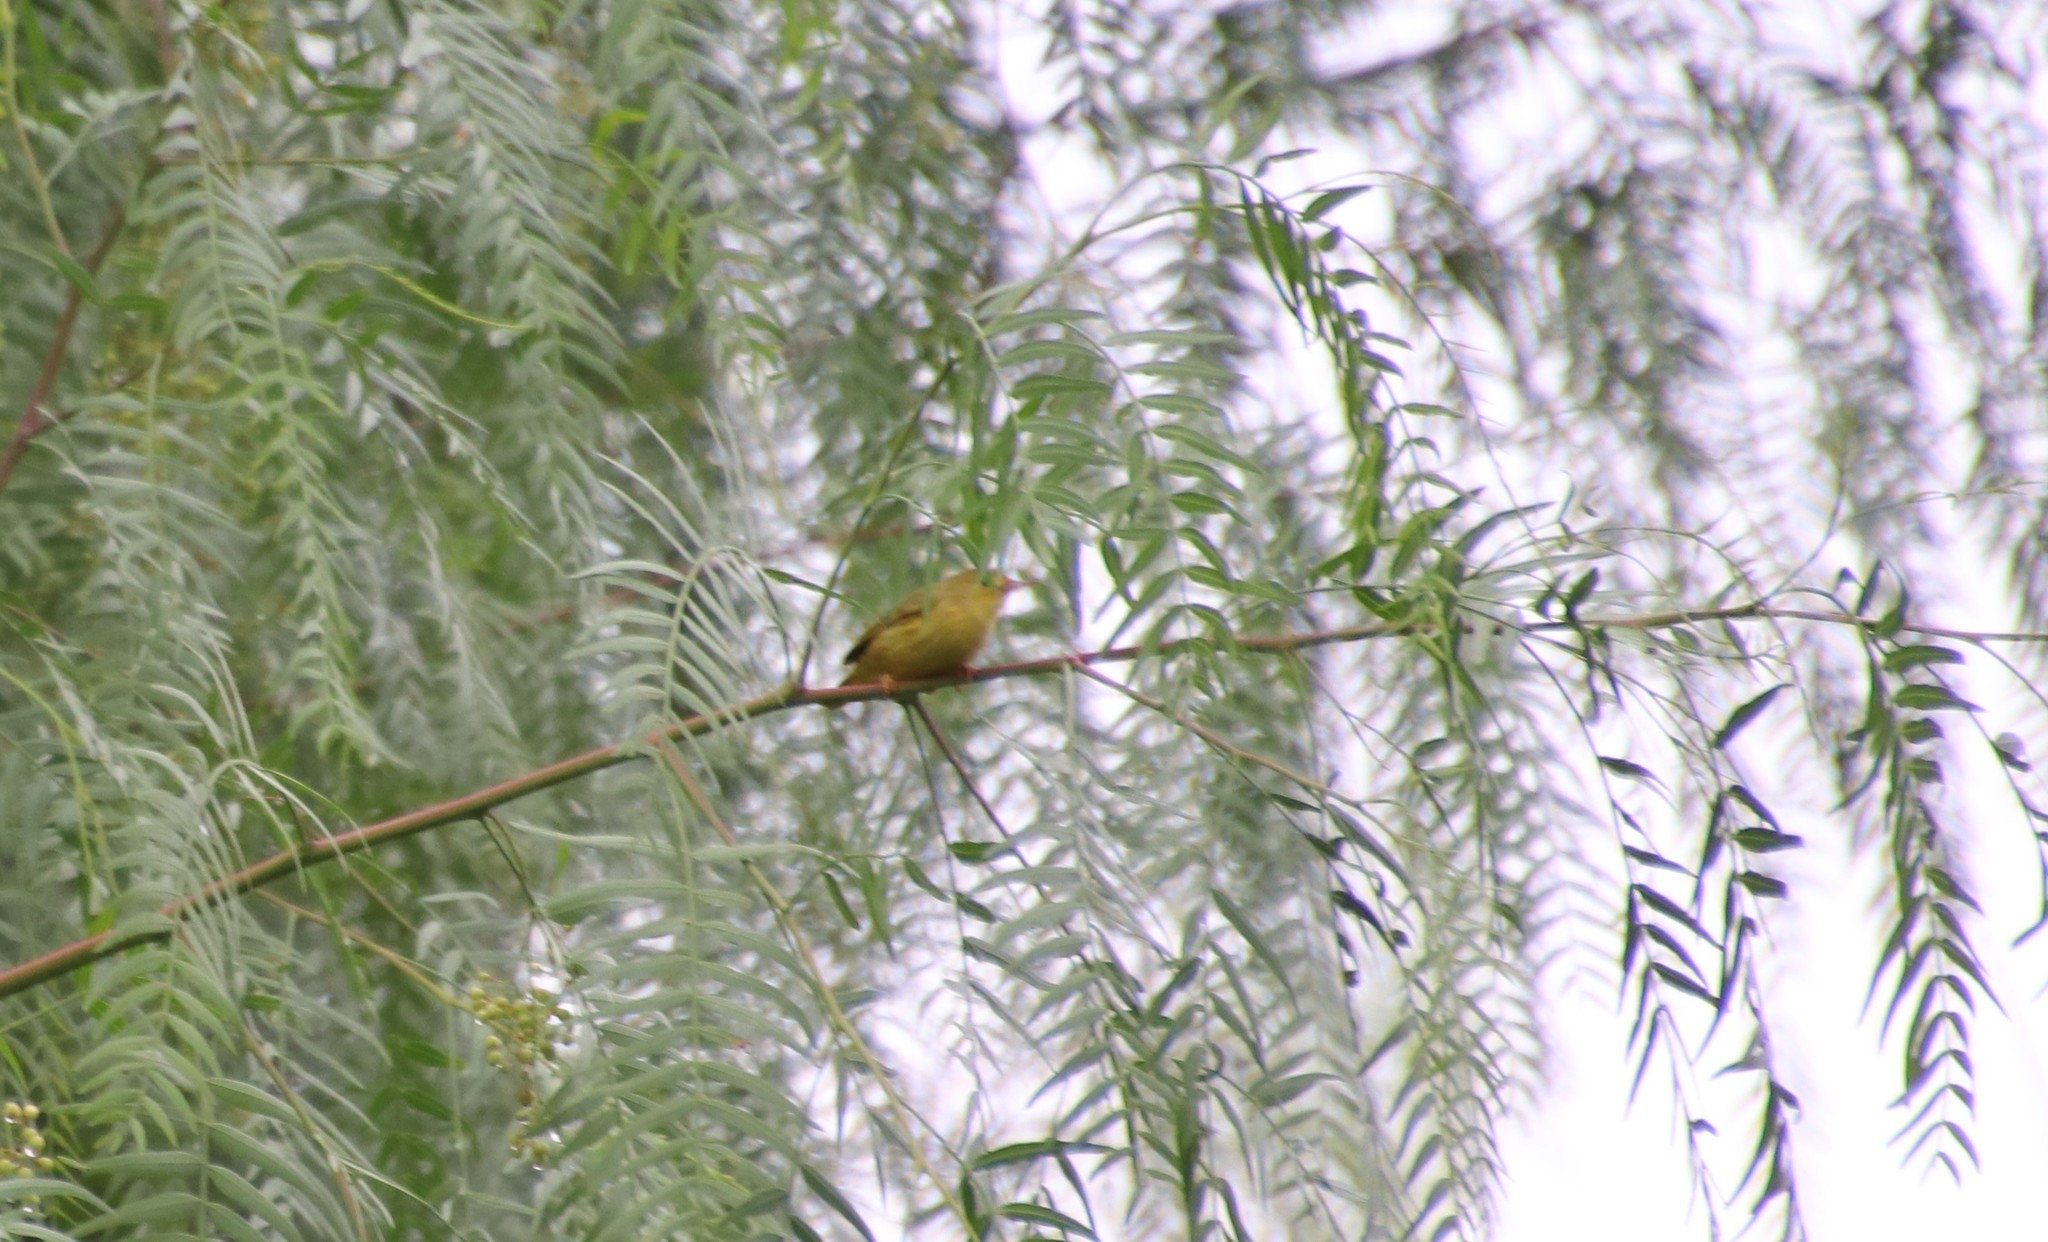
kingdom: Animalia
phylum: Chordata
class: Aves
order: Passeriformes
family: Parulidae
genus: Setophaga
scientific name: Setophaga petechia
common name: Yellow warbler
